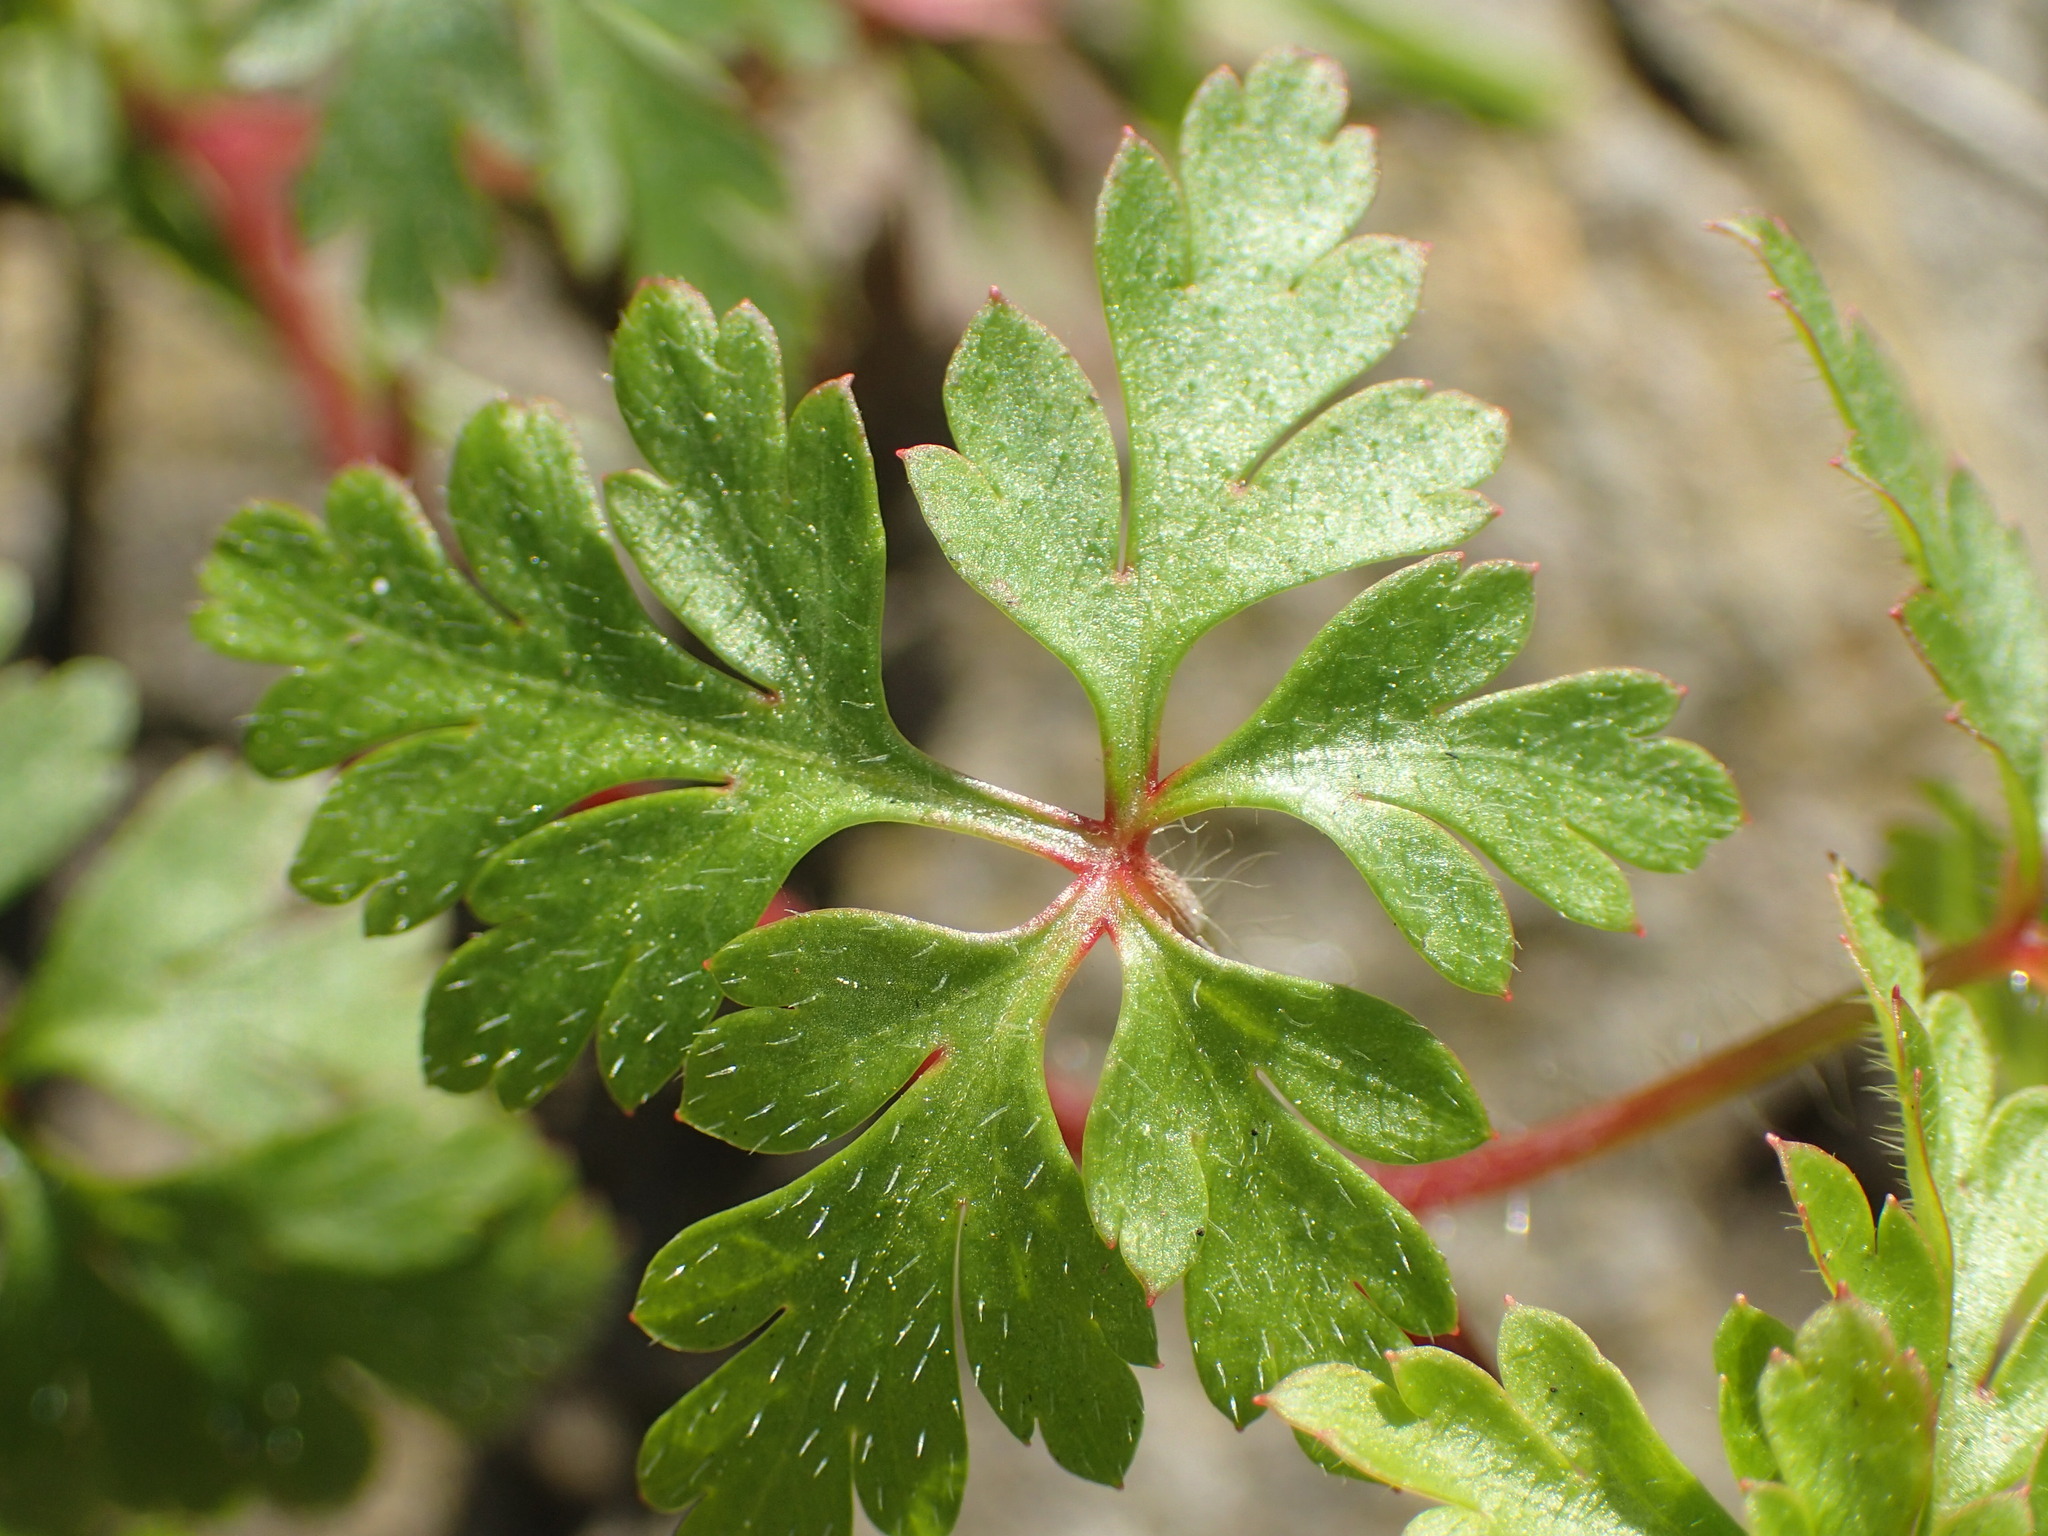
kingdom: Plantae
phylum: Tracheophyta
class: Magnoliopsida
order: Geraniales
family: Geraniaceae
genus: Geranium
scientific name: Geranium purpureum
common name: Little-robin
